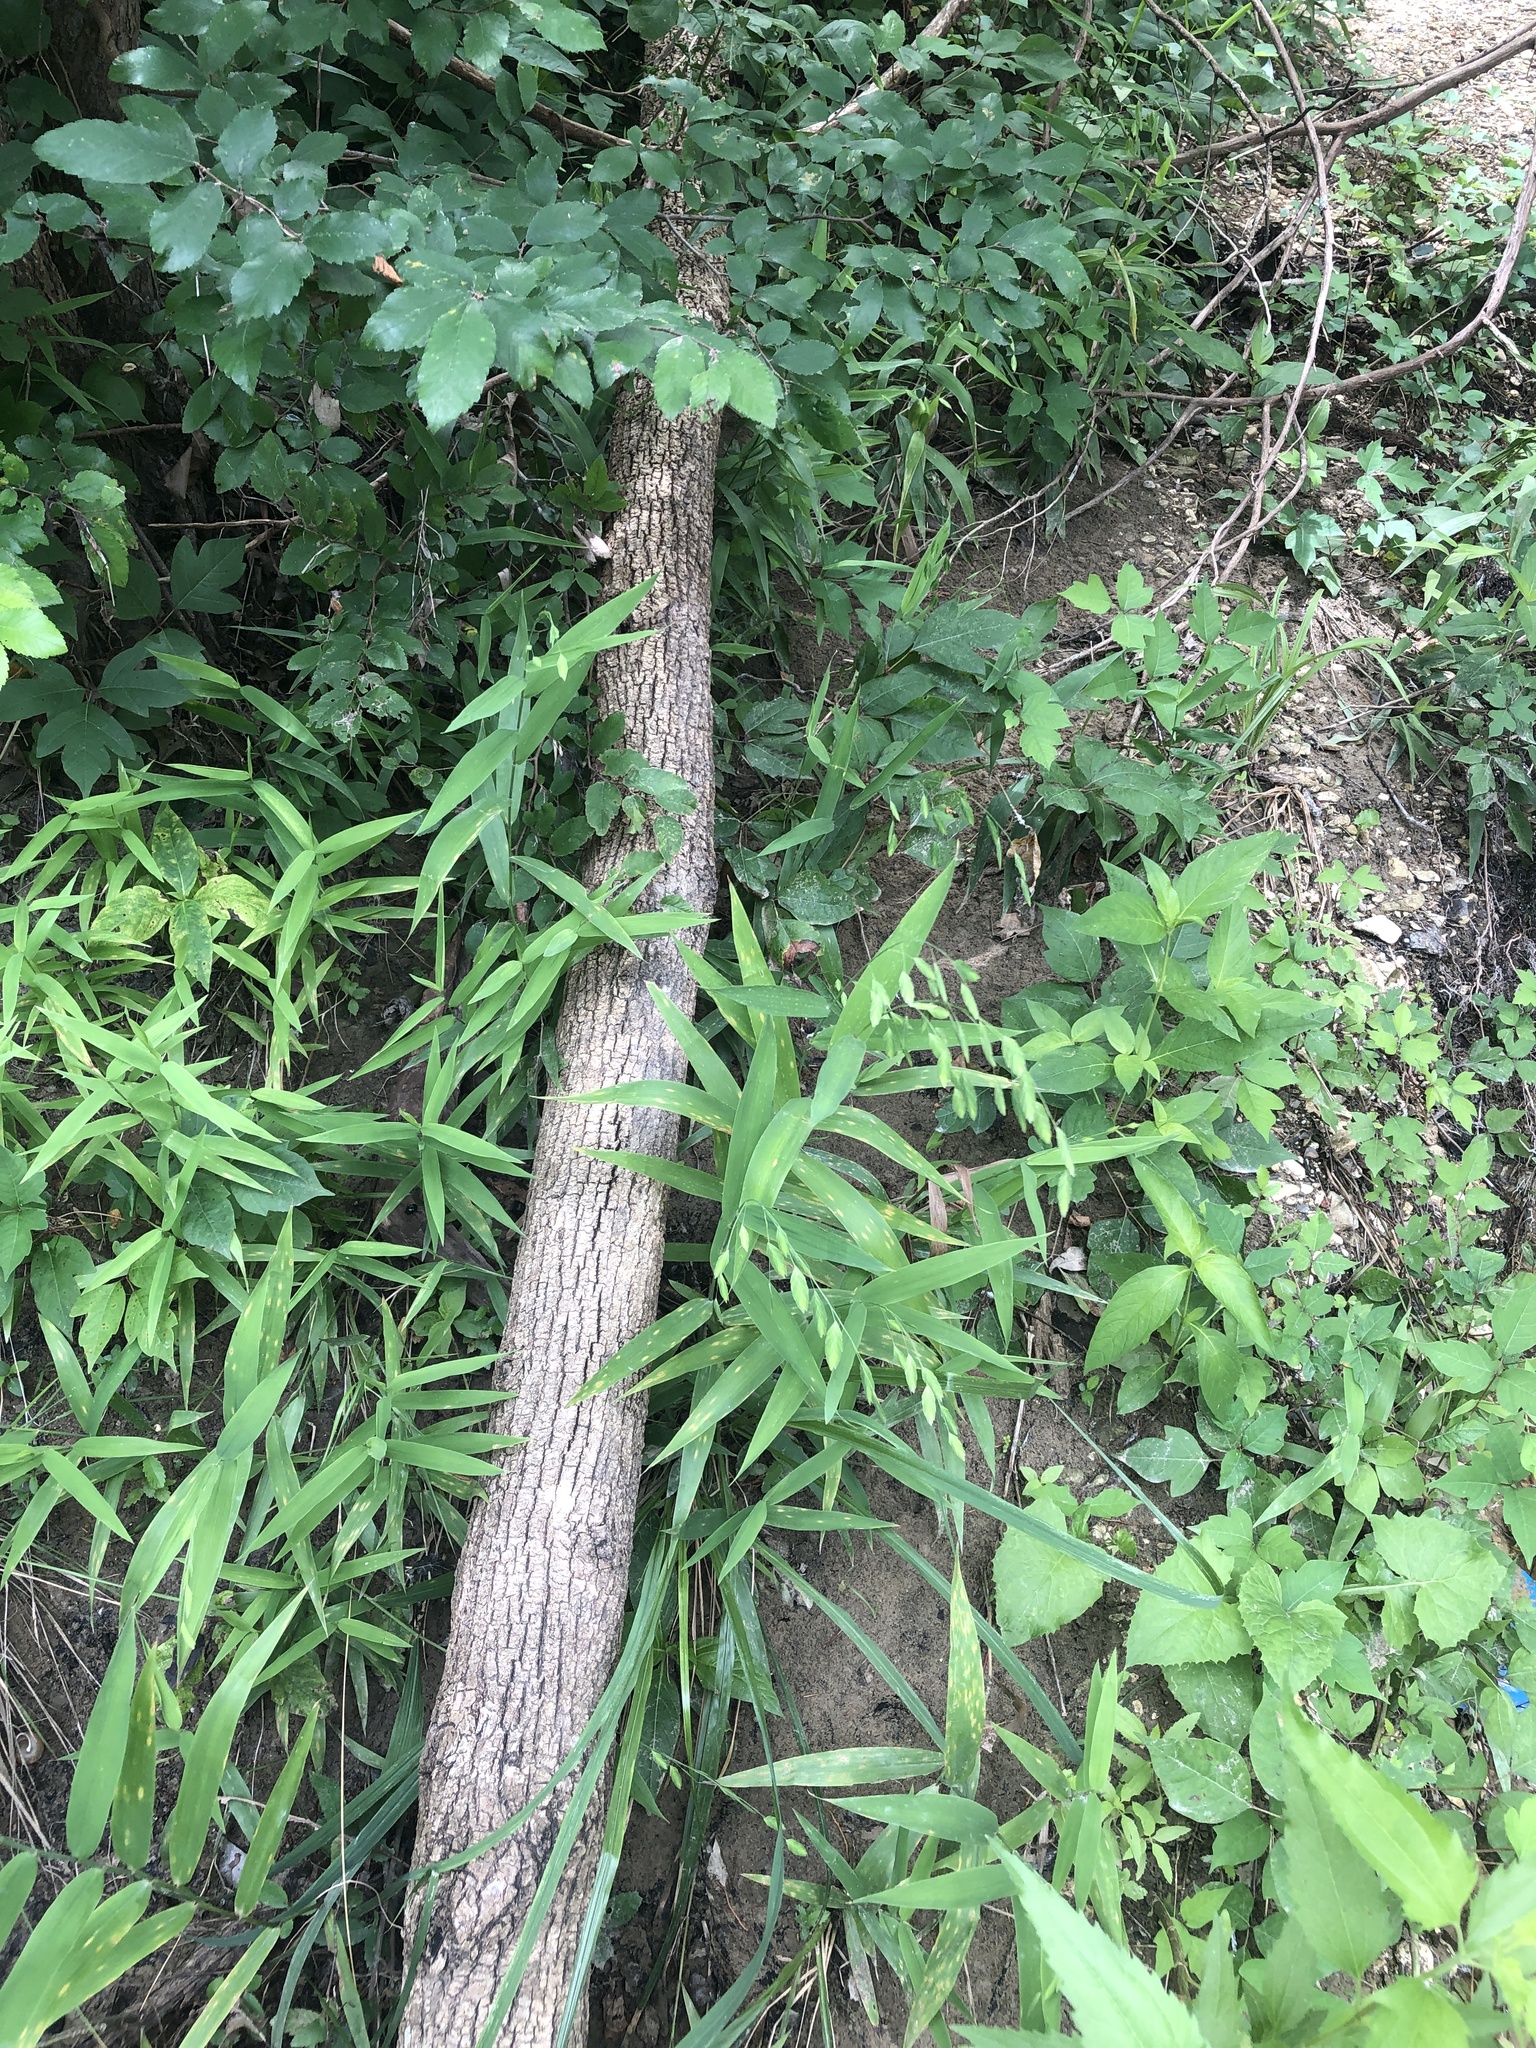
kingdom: Plantae
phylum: Tracheophyta
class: Liliopsida
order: Poales
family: Poaceae
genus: Chasmanthium
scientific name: Chasmanthium latifolium
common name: Broad-leaved chasmanthium
